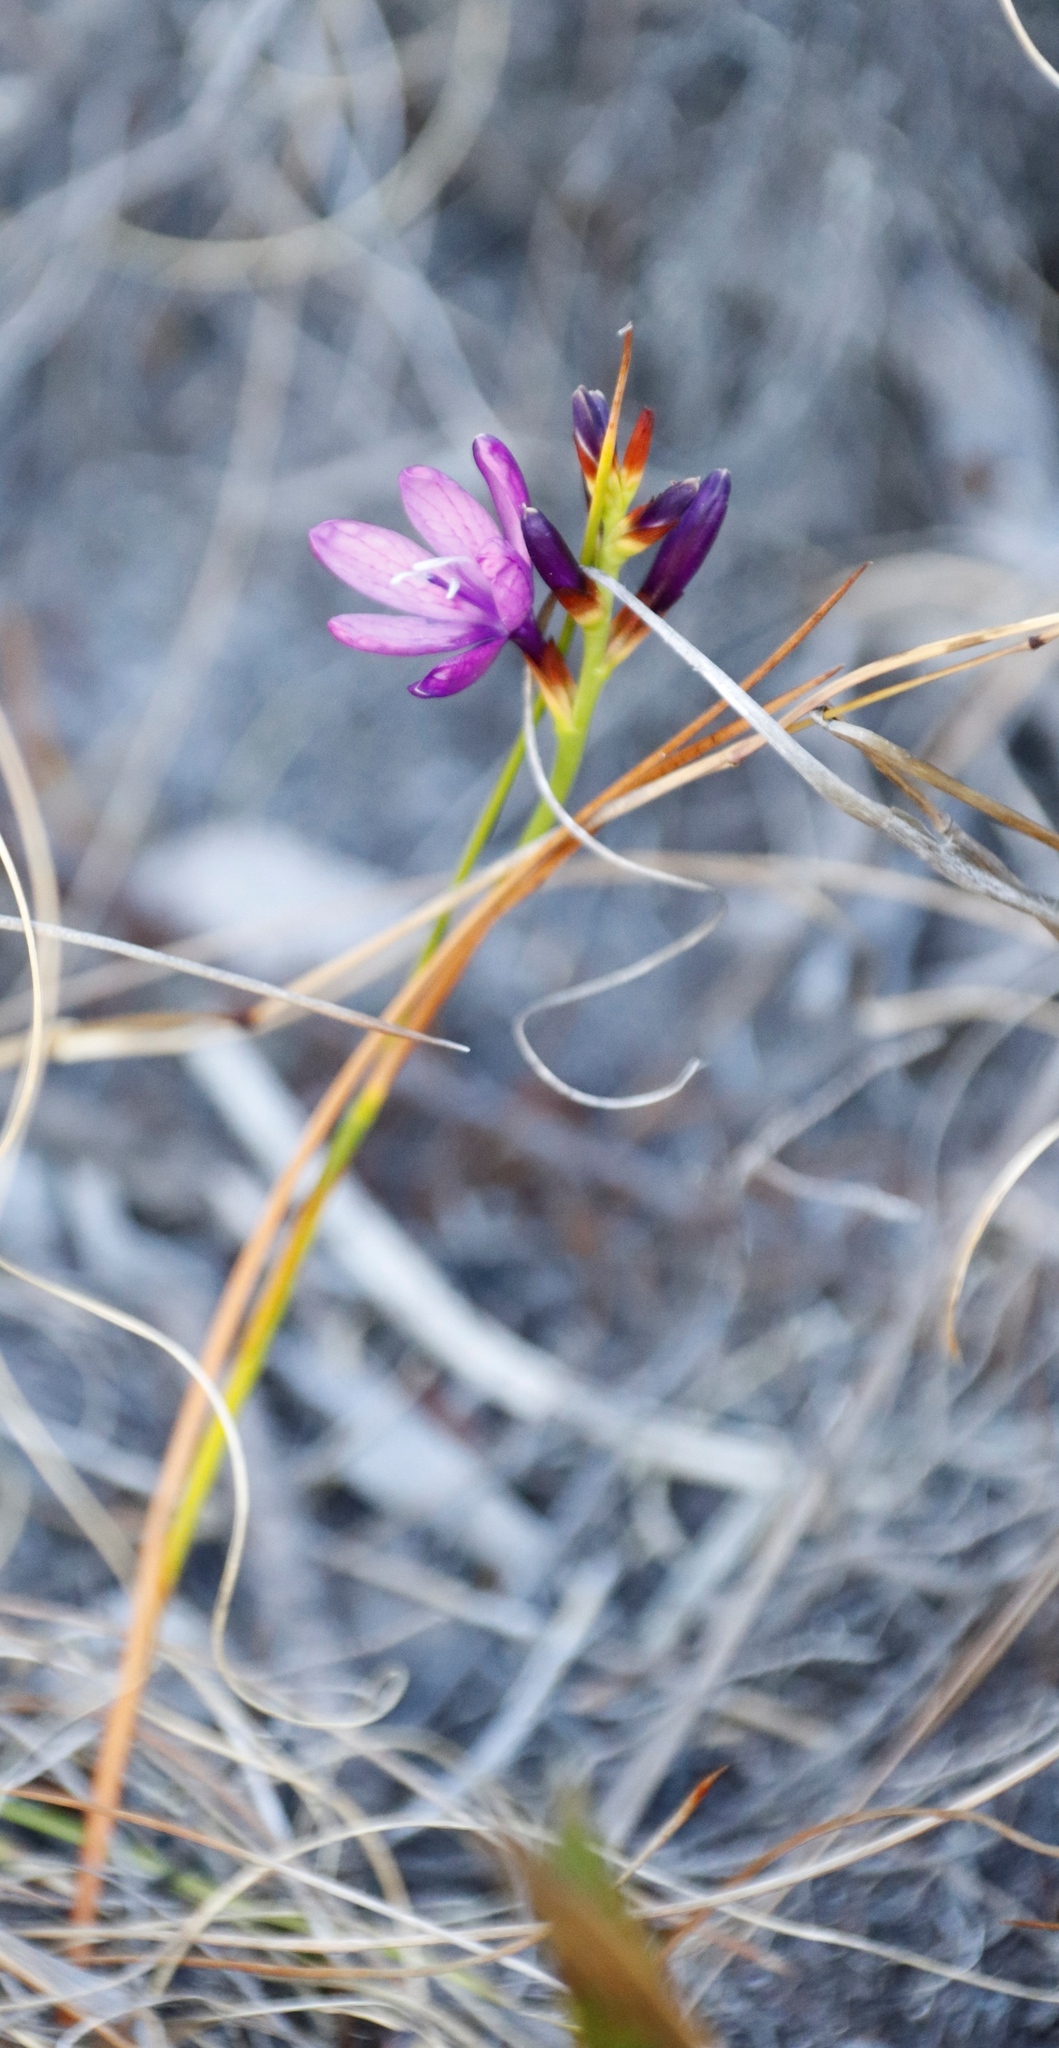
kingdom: Plantae
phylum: Tracheophyta
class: Liliopsida
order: Asparagales
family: Iridaceae
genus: Thereianthus
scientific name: Thereianthus bracteolatus
